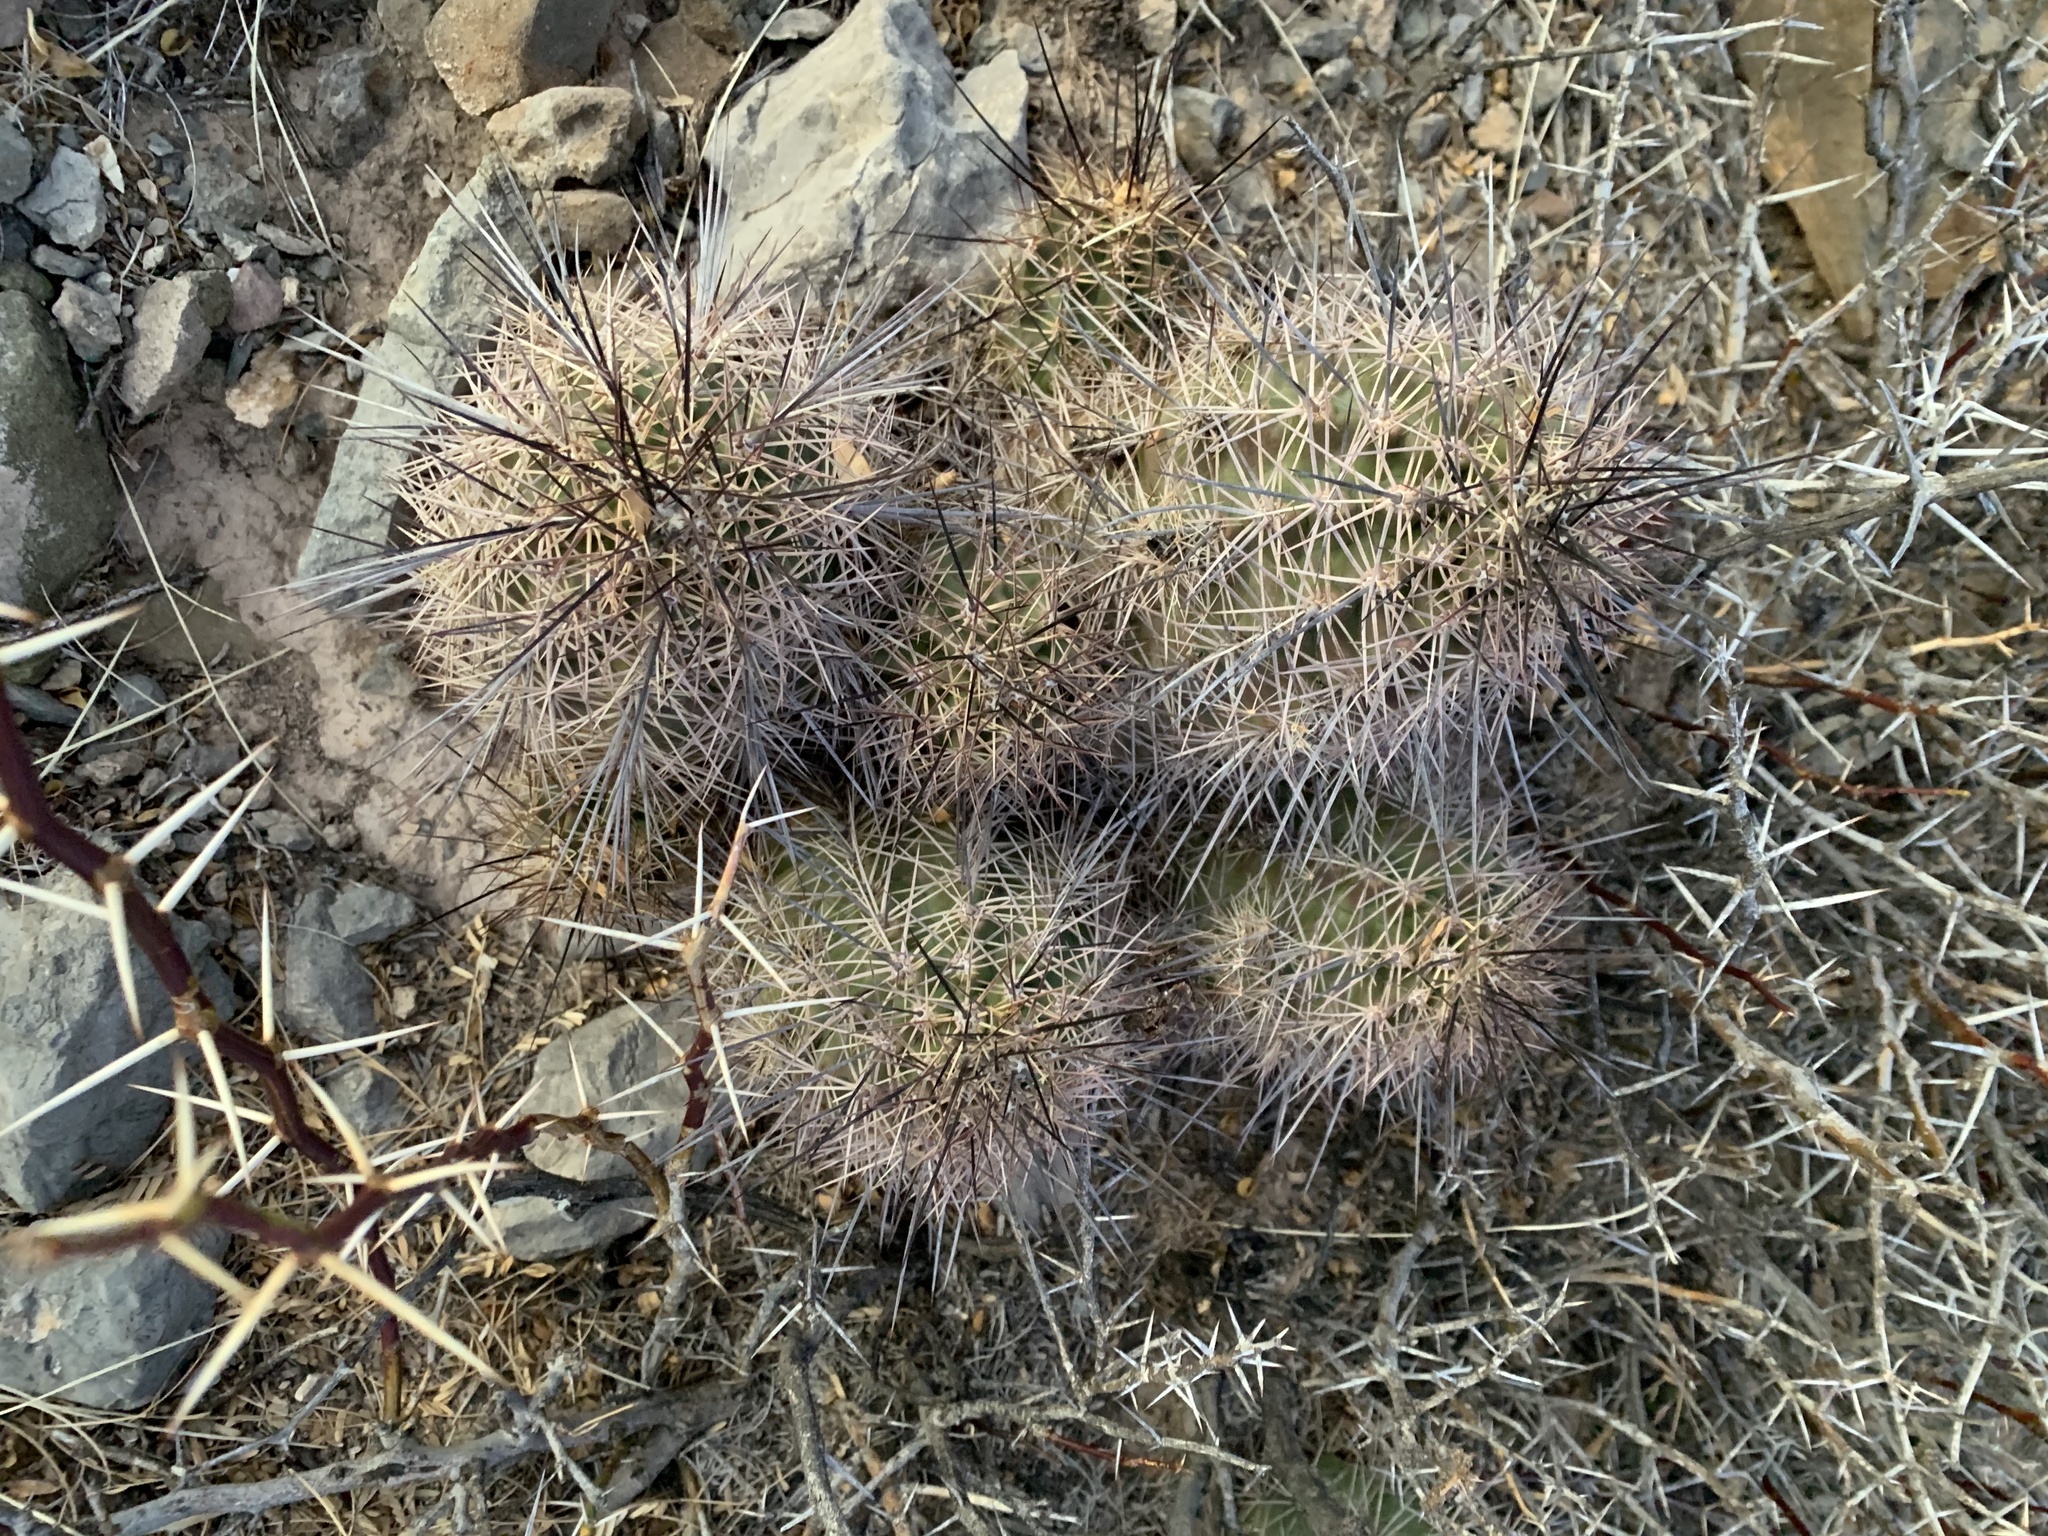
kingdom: Plantae
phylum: Tracheophyta
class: Magnoliopsida
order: Caryophyllales
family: Cactaceae
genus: Echinocereus
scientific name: Echinocereus coccineus
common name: Scarlet hedgehog cactus
